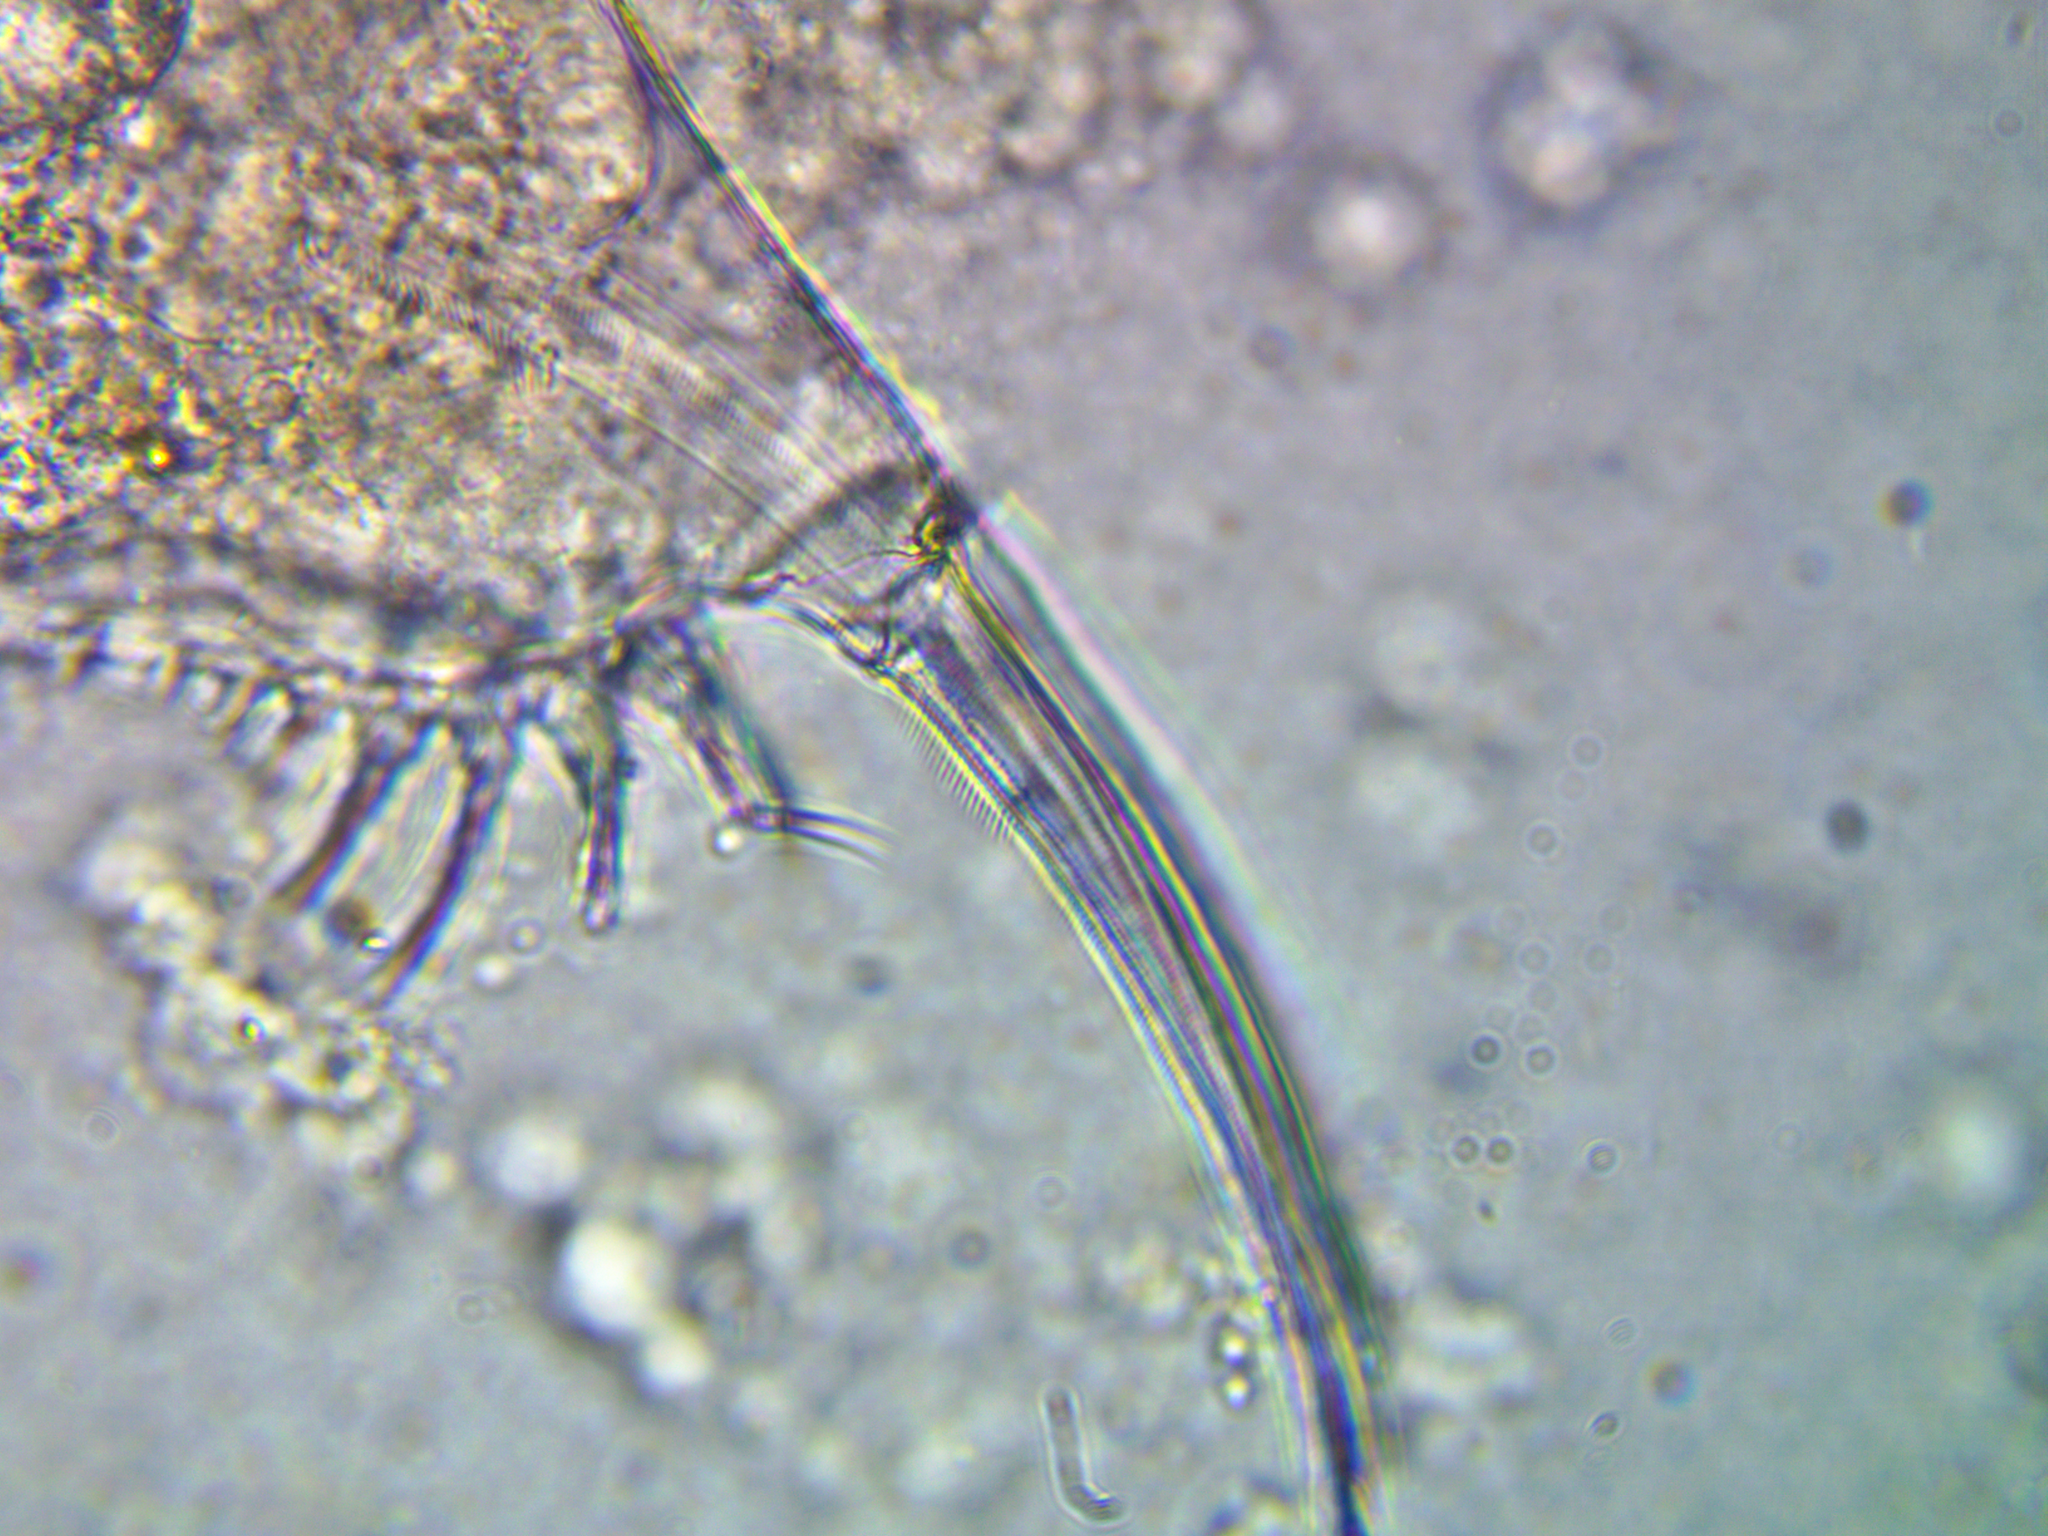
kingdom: Animalia
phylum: Arthropoda
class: Branchiopoda
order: Diplostraca
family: Daphniidae
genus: Simocephalus
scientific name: Simocephalus congener
